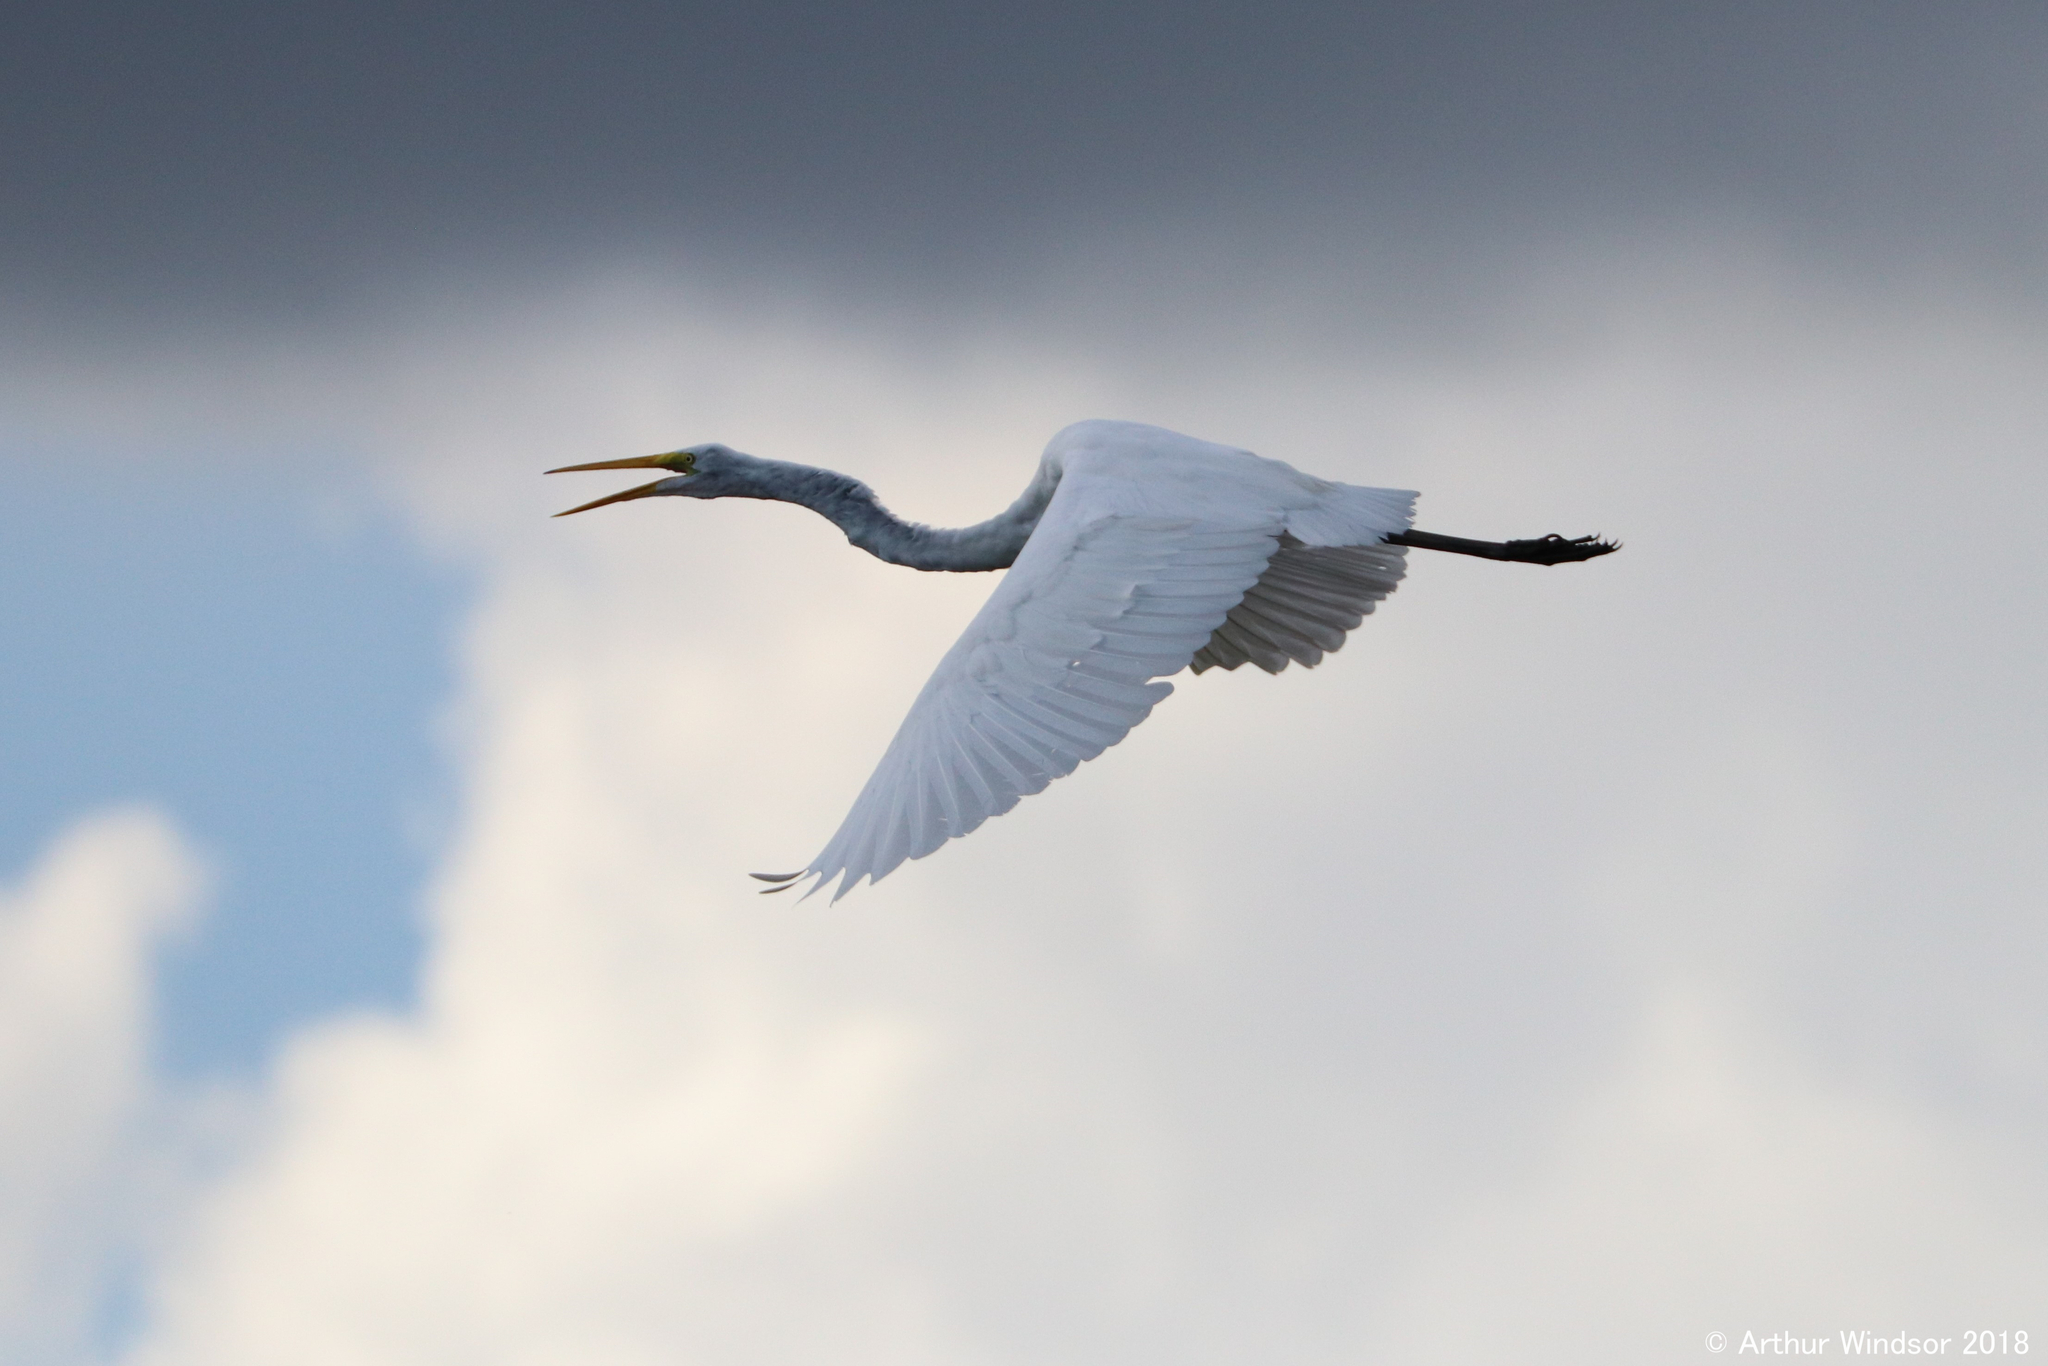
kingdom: Animalia
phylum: Chordata
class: Aves
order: Pelecaniformes
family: Ardeidae
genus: Ardea
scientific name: Ardea alba
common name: Great egret
